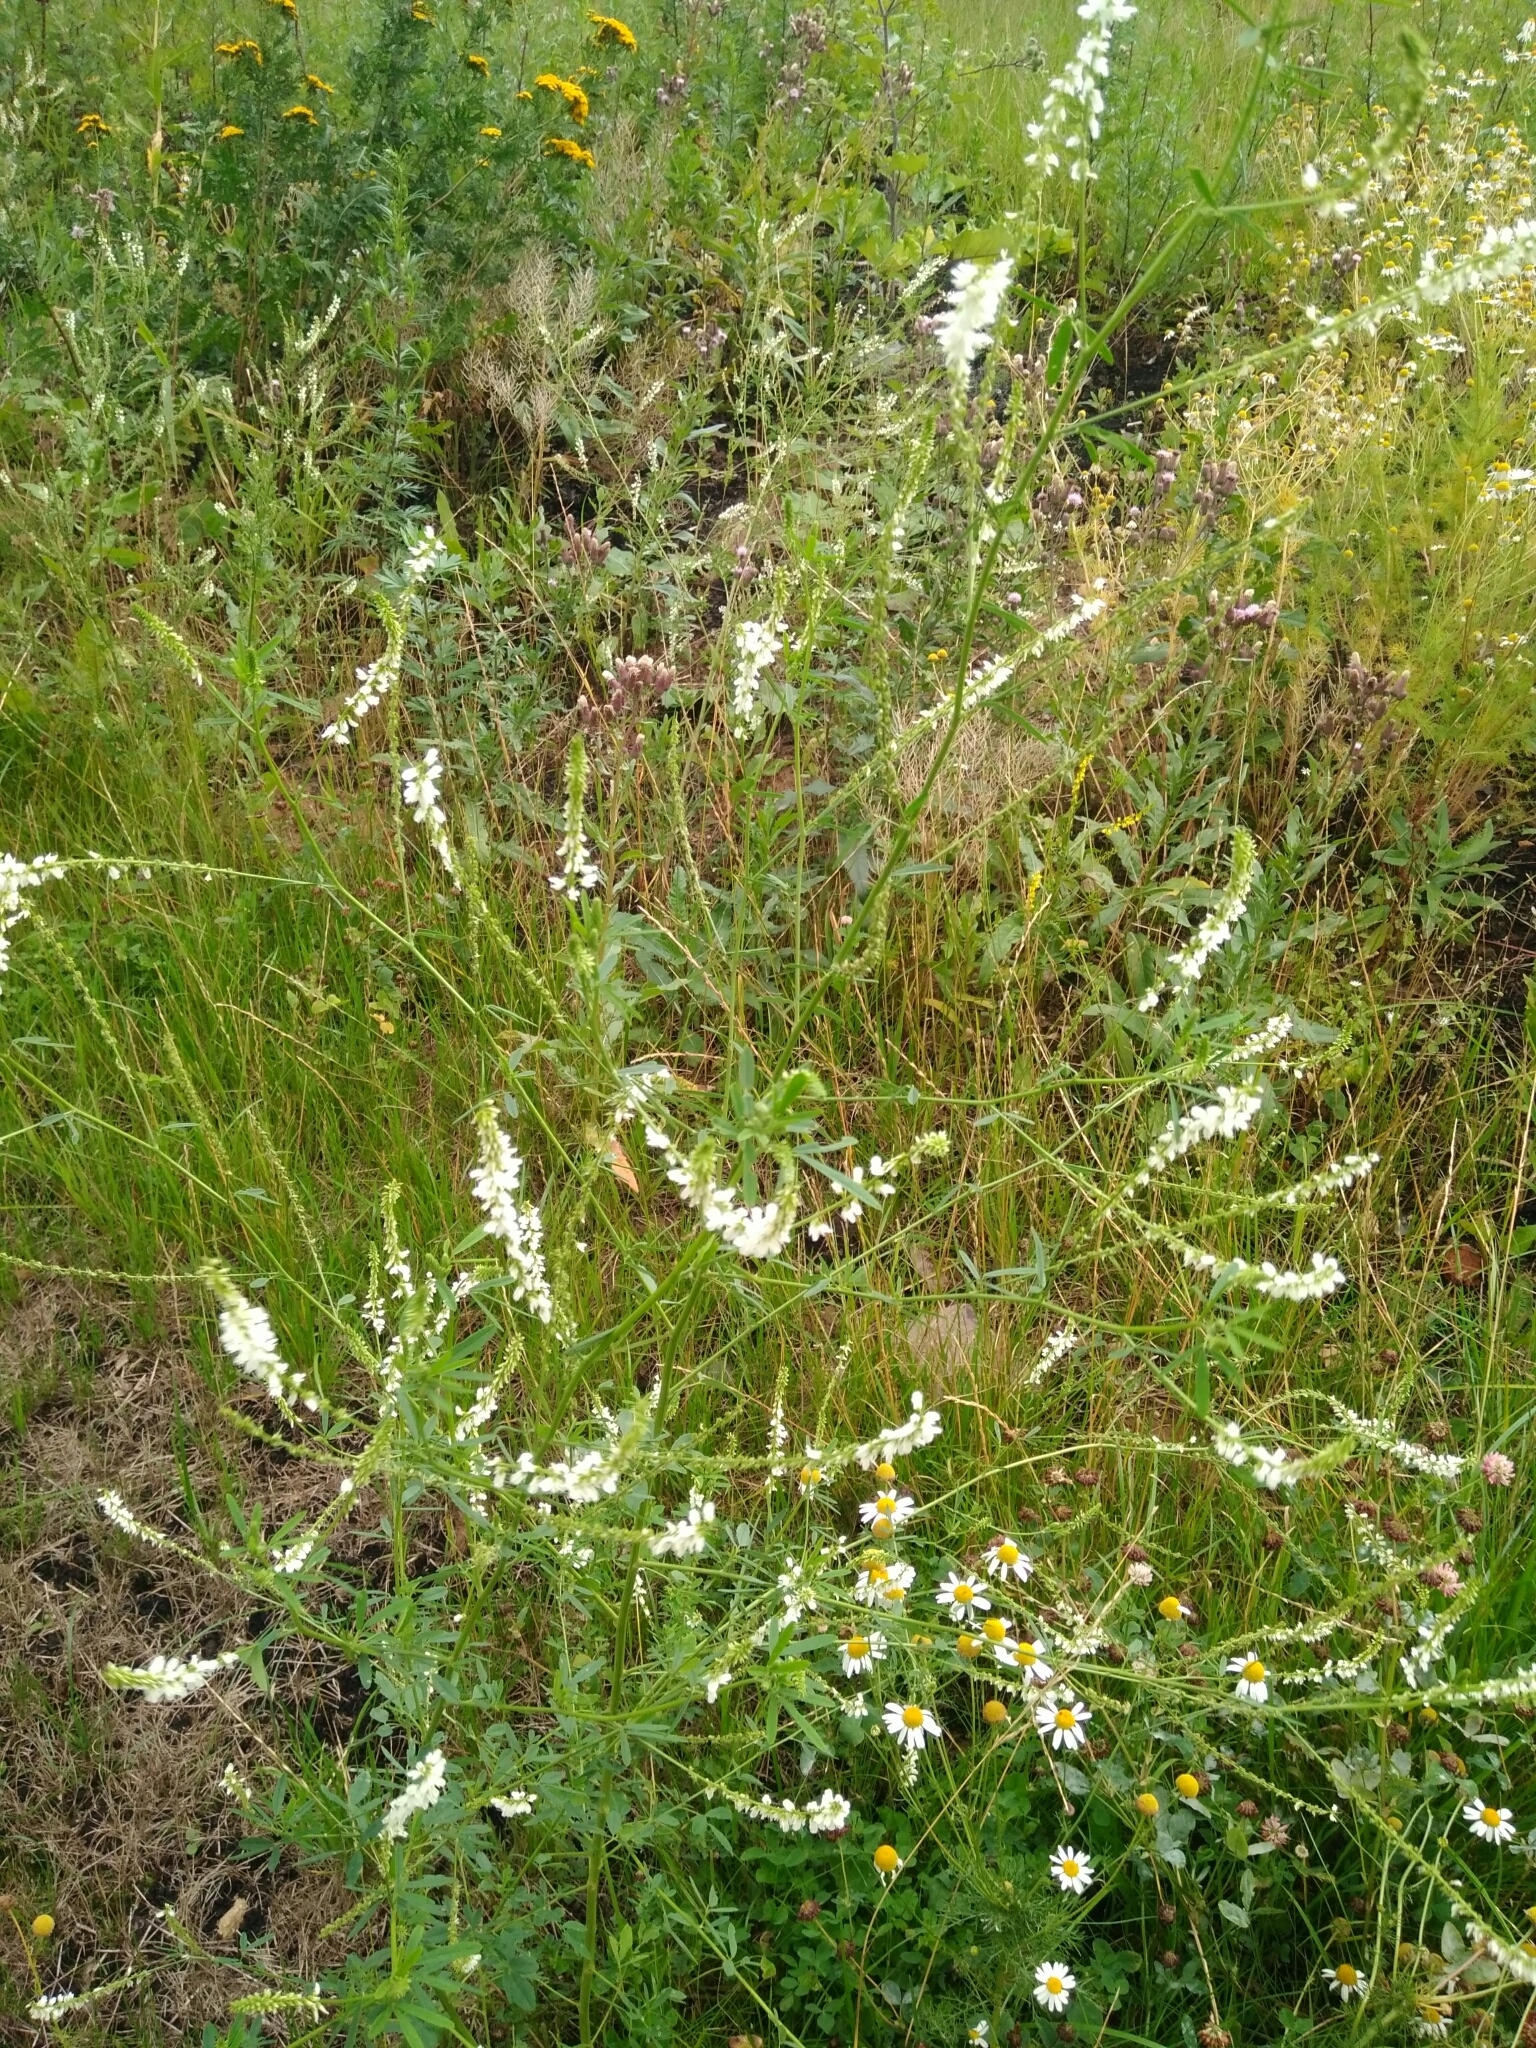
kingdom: Plantae
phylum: Tracheophyta
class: Magnoliopsida
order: Fabales
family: Fabaceae
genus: Melilotus
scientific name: Melilotus albus
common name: White melilot
